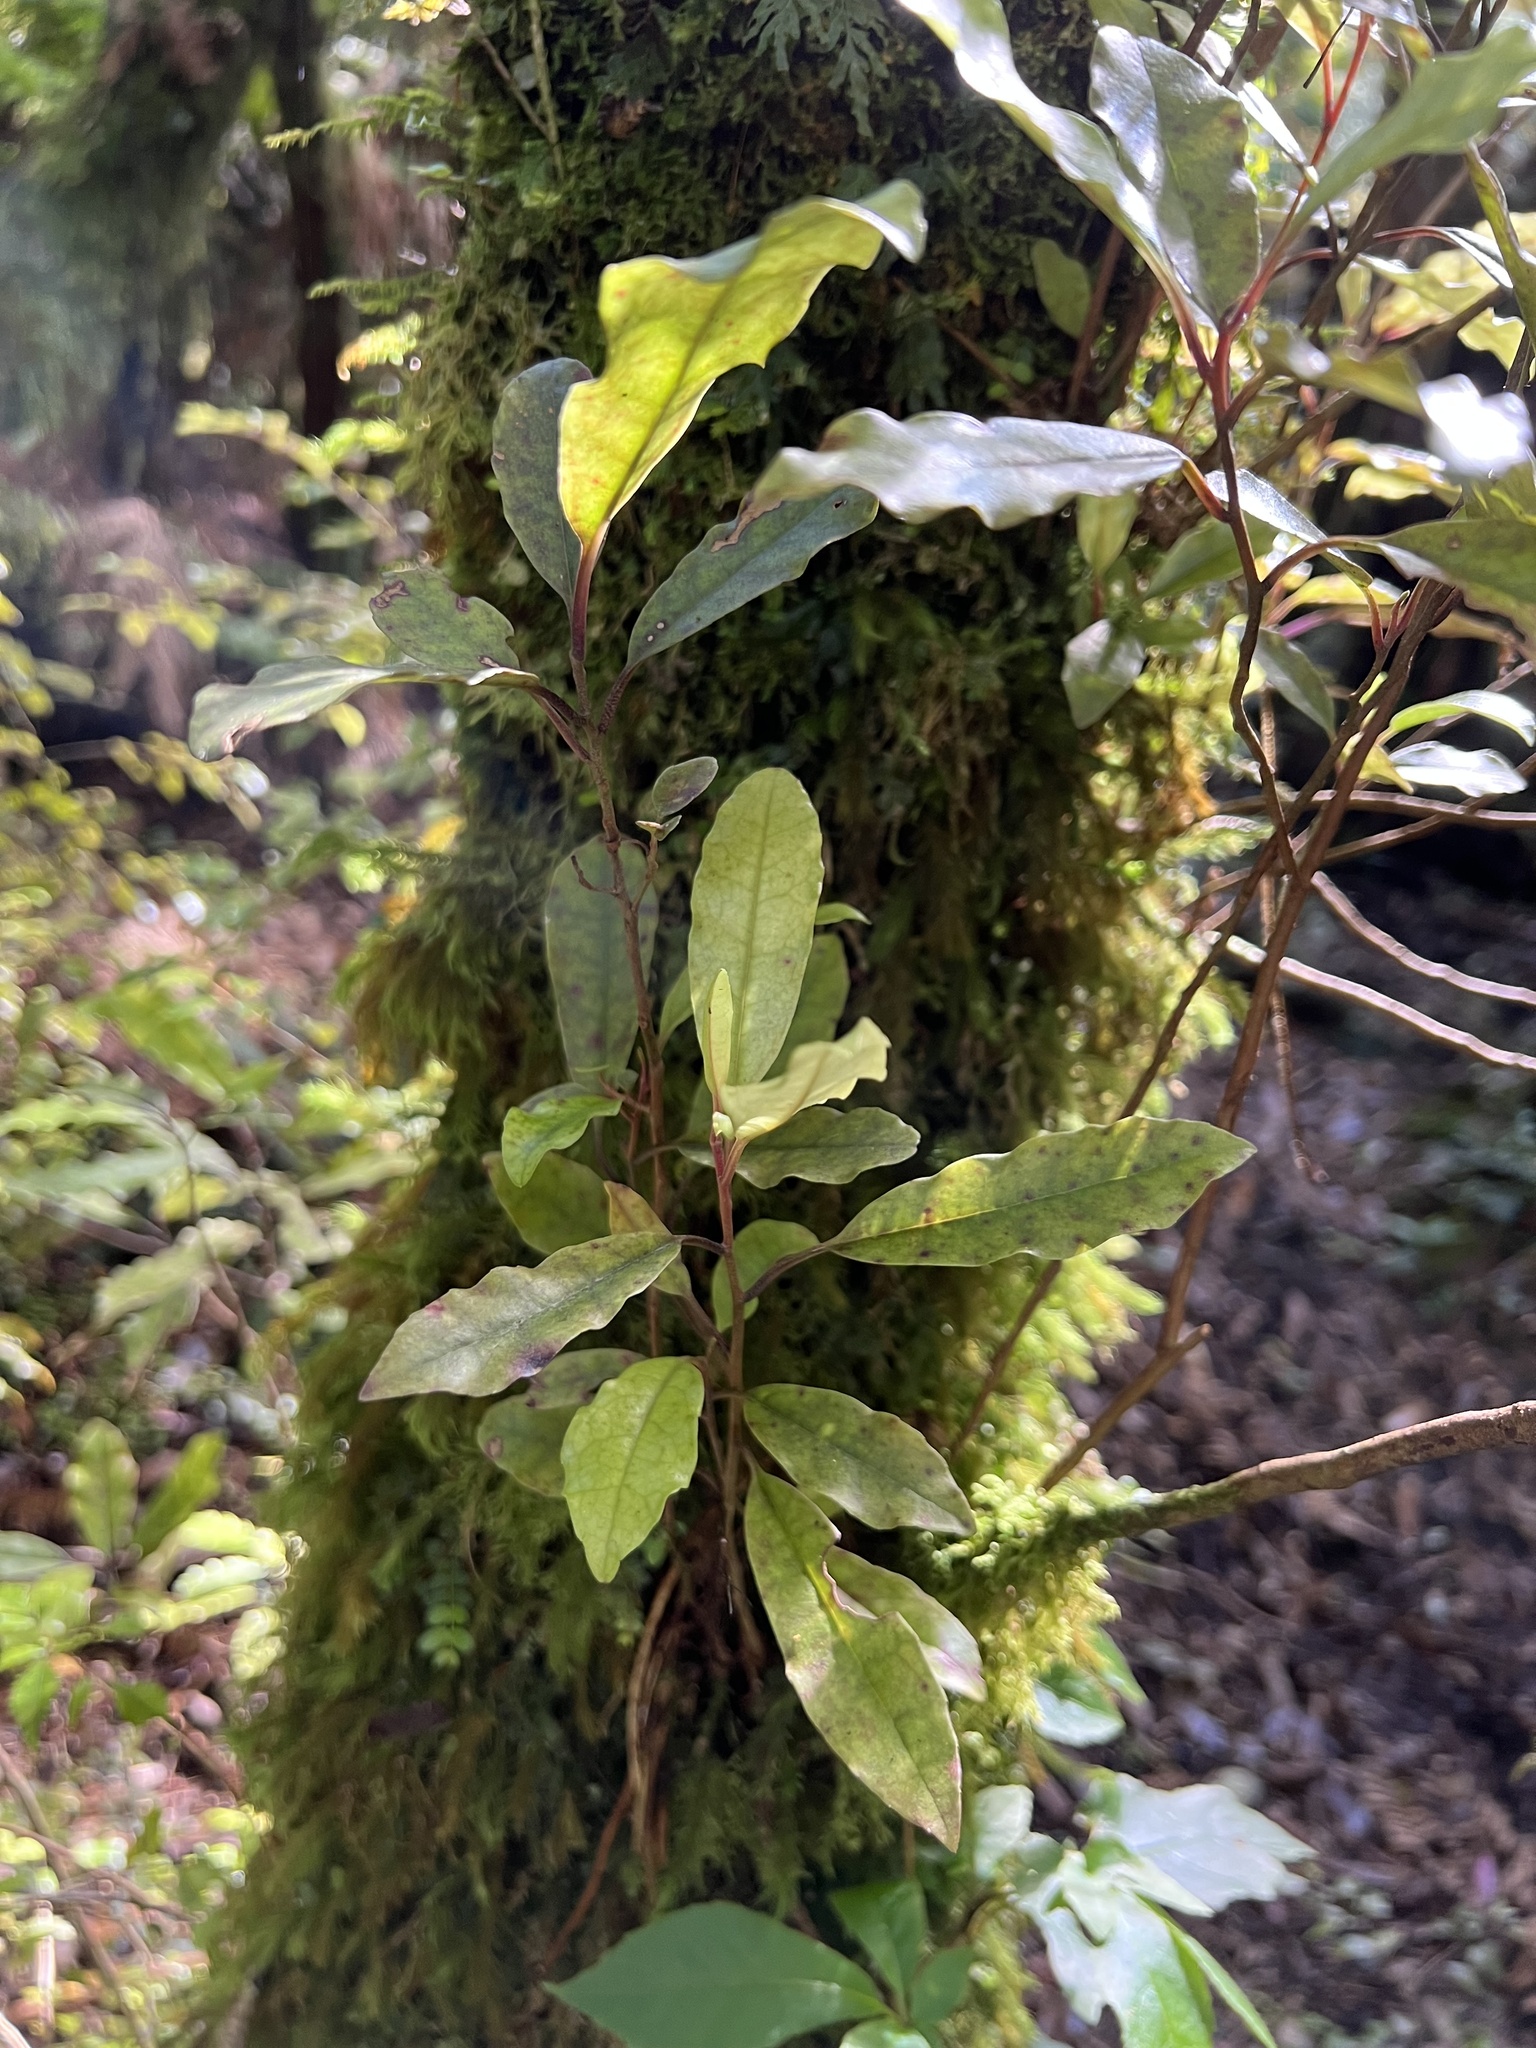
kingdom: Plantae
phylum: Tracheophyta
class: Magnoliopsida
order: Paracryphiales
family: Paracryphiaceae
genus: Quintinia
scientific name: Quintinia serrata
